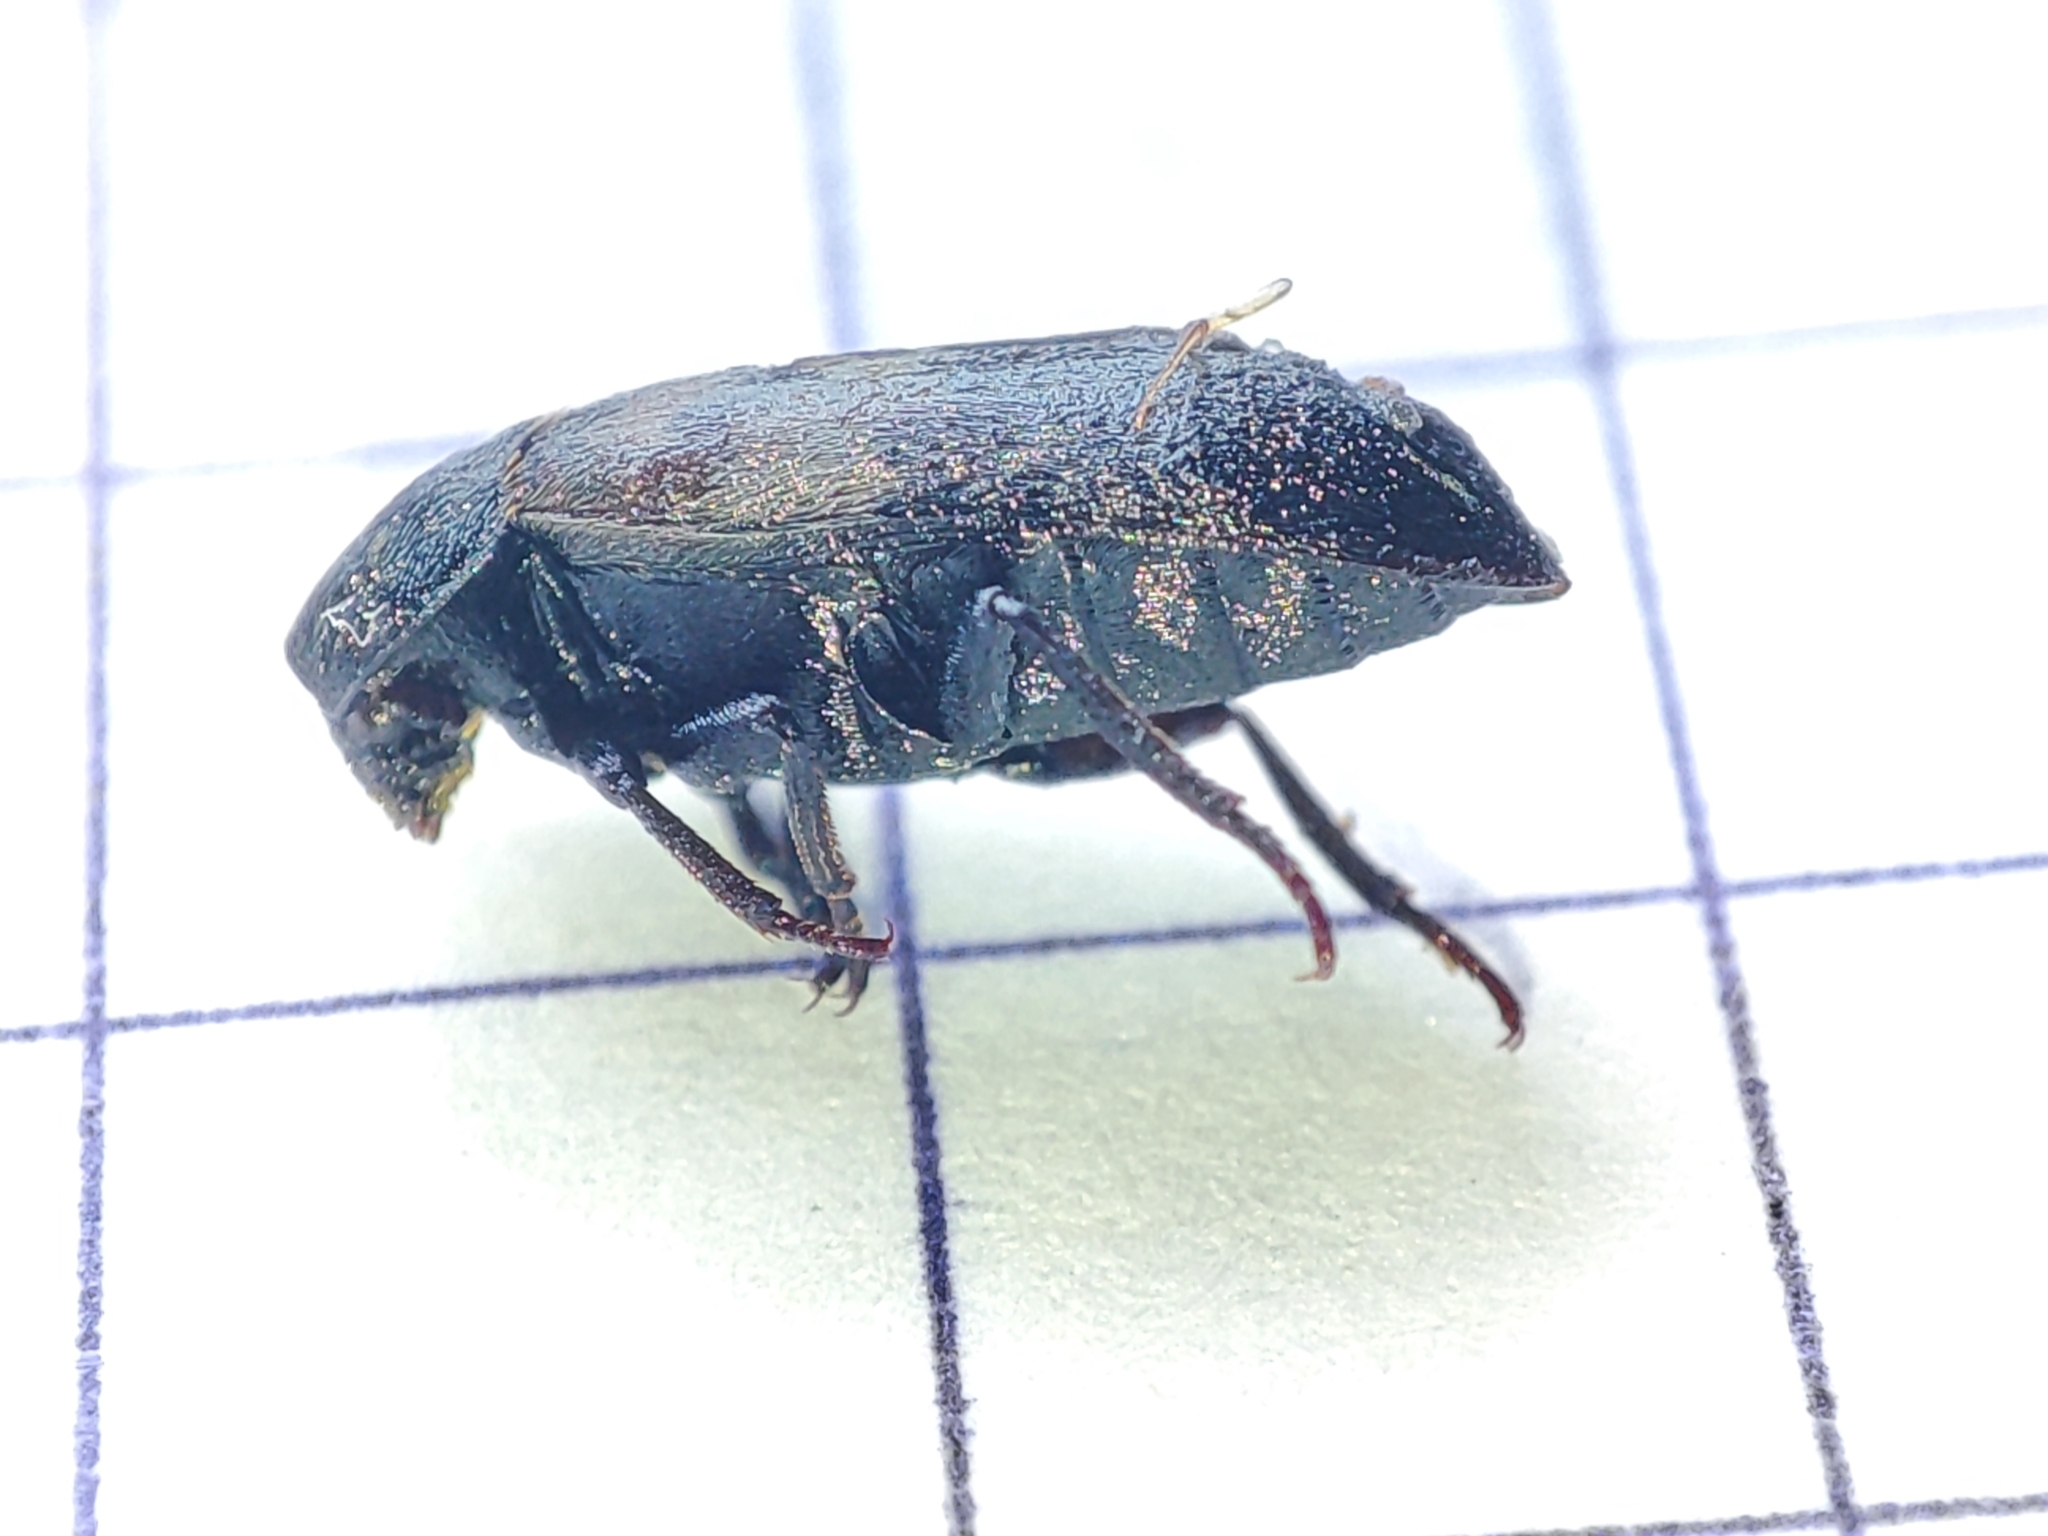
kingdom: Animalia
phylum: Arthropoda
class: Insecta
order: Coleoptera
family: Dermestidae
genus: Dermestes
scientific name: Dermestes lardarius
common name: Larder beetle
